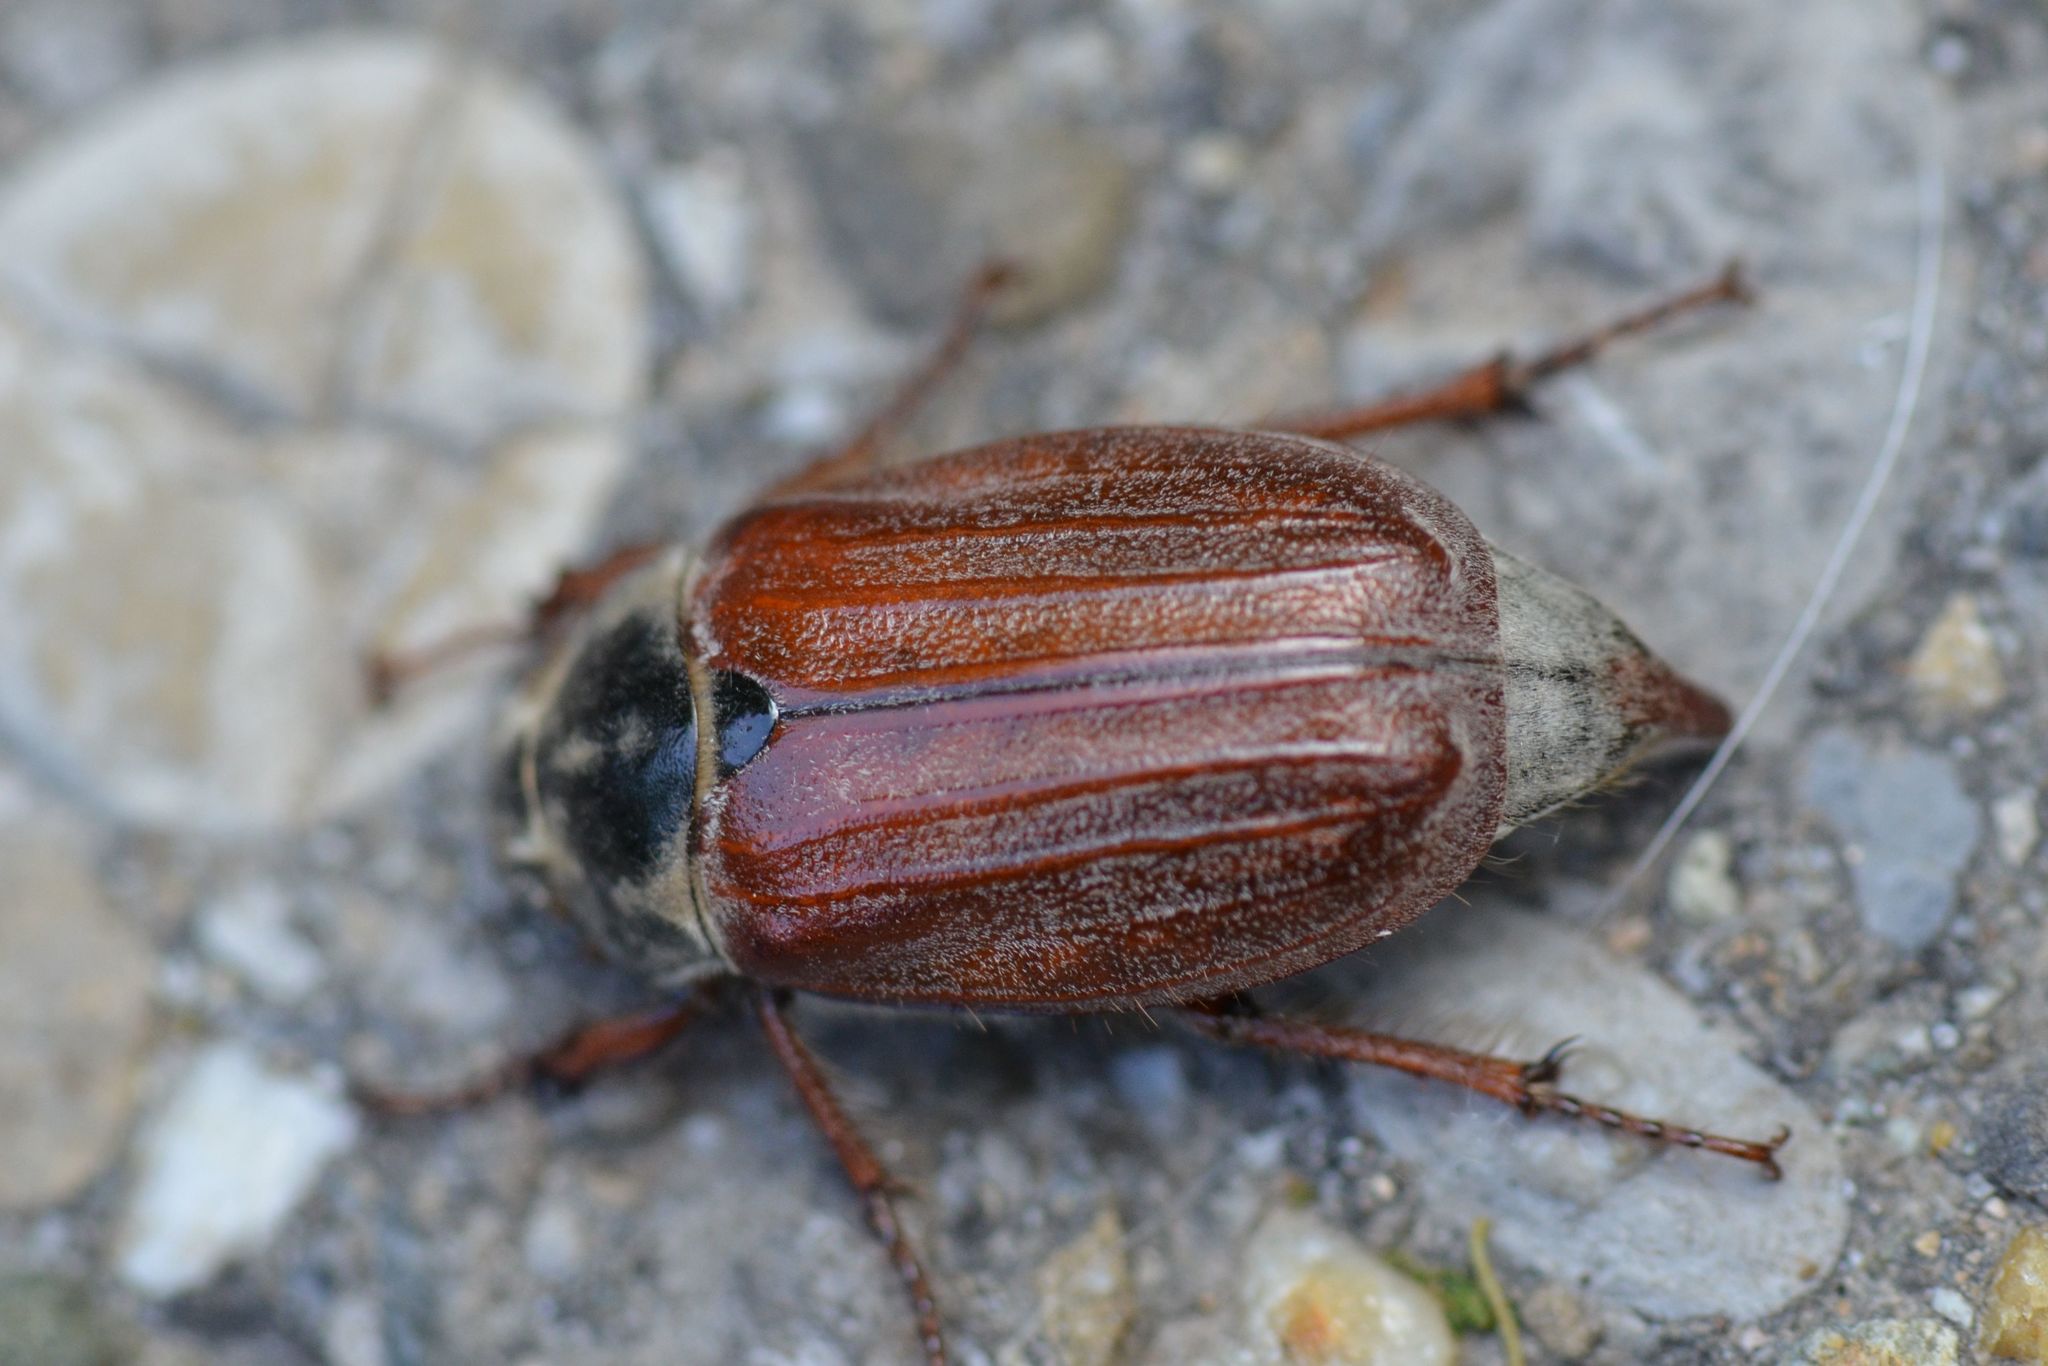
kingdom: Animalia
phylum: Arthropoda
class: Insecta
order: Coleoptera
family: Scarabaeidae
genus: Melolontha
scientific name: Melolontha melolontha
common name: Cockchafer maybeetle
